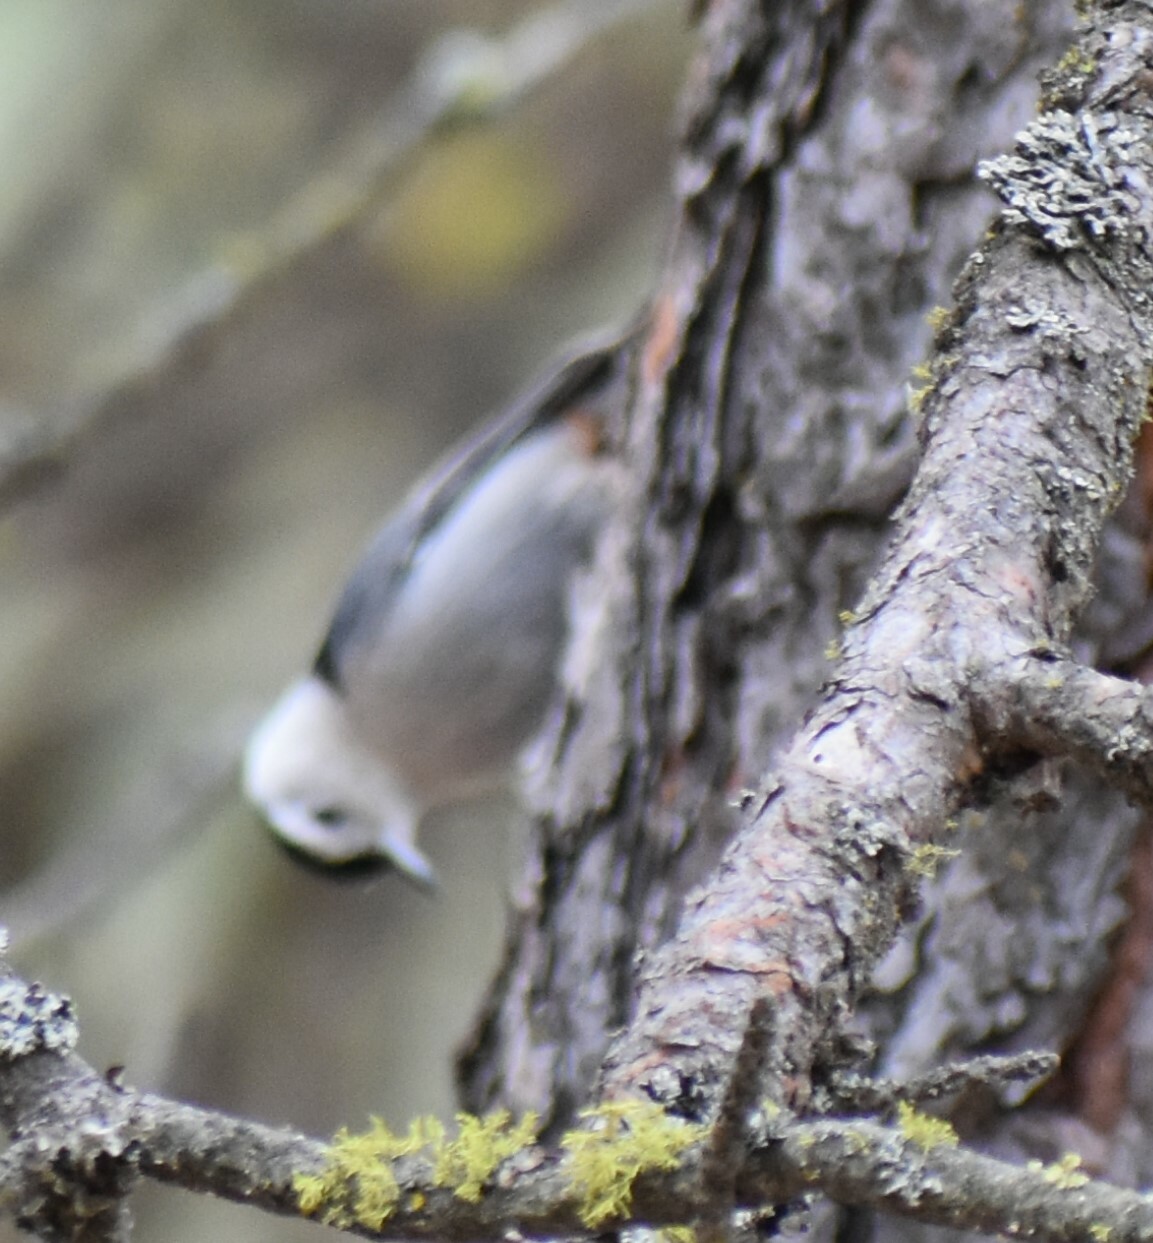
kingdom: Animalia
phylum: Chordata
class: Aves
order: Passeriformes
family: Sittidae
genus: Sitta
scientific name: Sitta carolinensis
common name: White-breasted nuthatch
